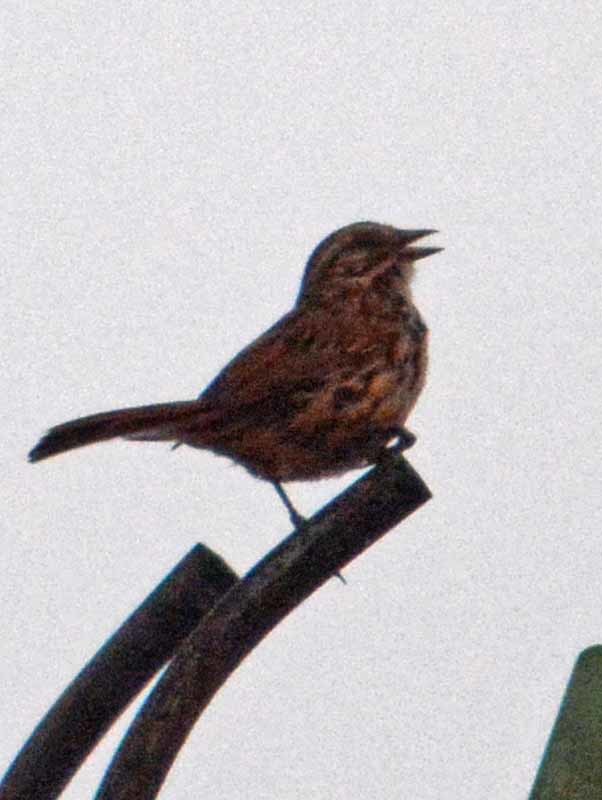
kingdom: Animalia
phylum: Chordata
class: Aves
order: Passeriformes
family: Passerellidae
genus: Melospiza
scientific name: Melospiza melodia
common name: Song sparrow
